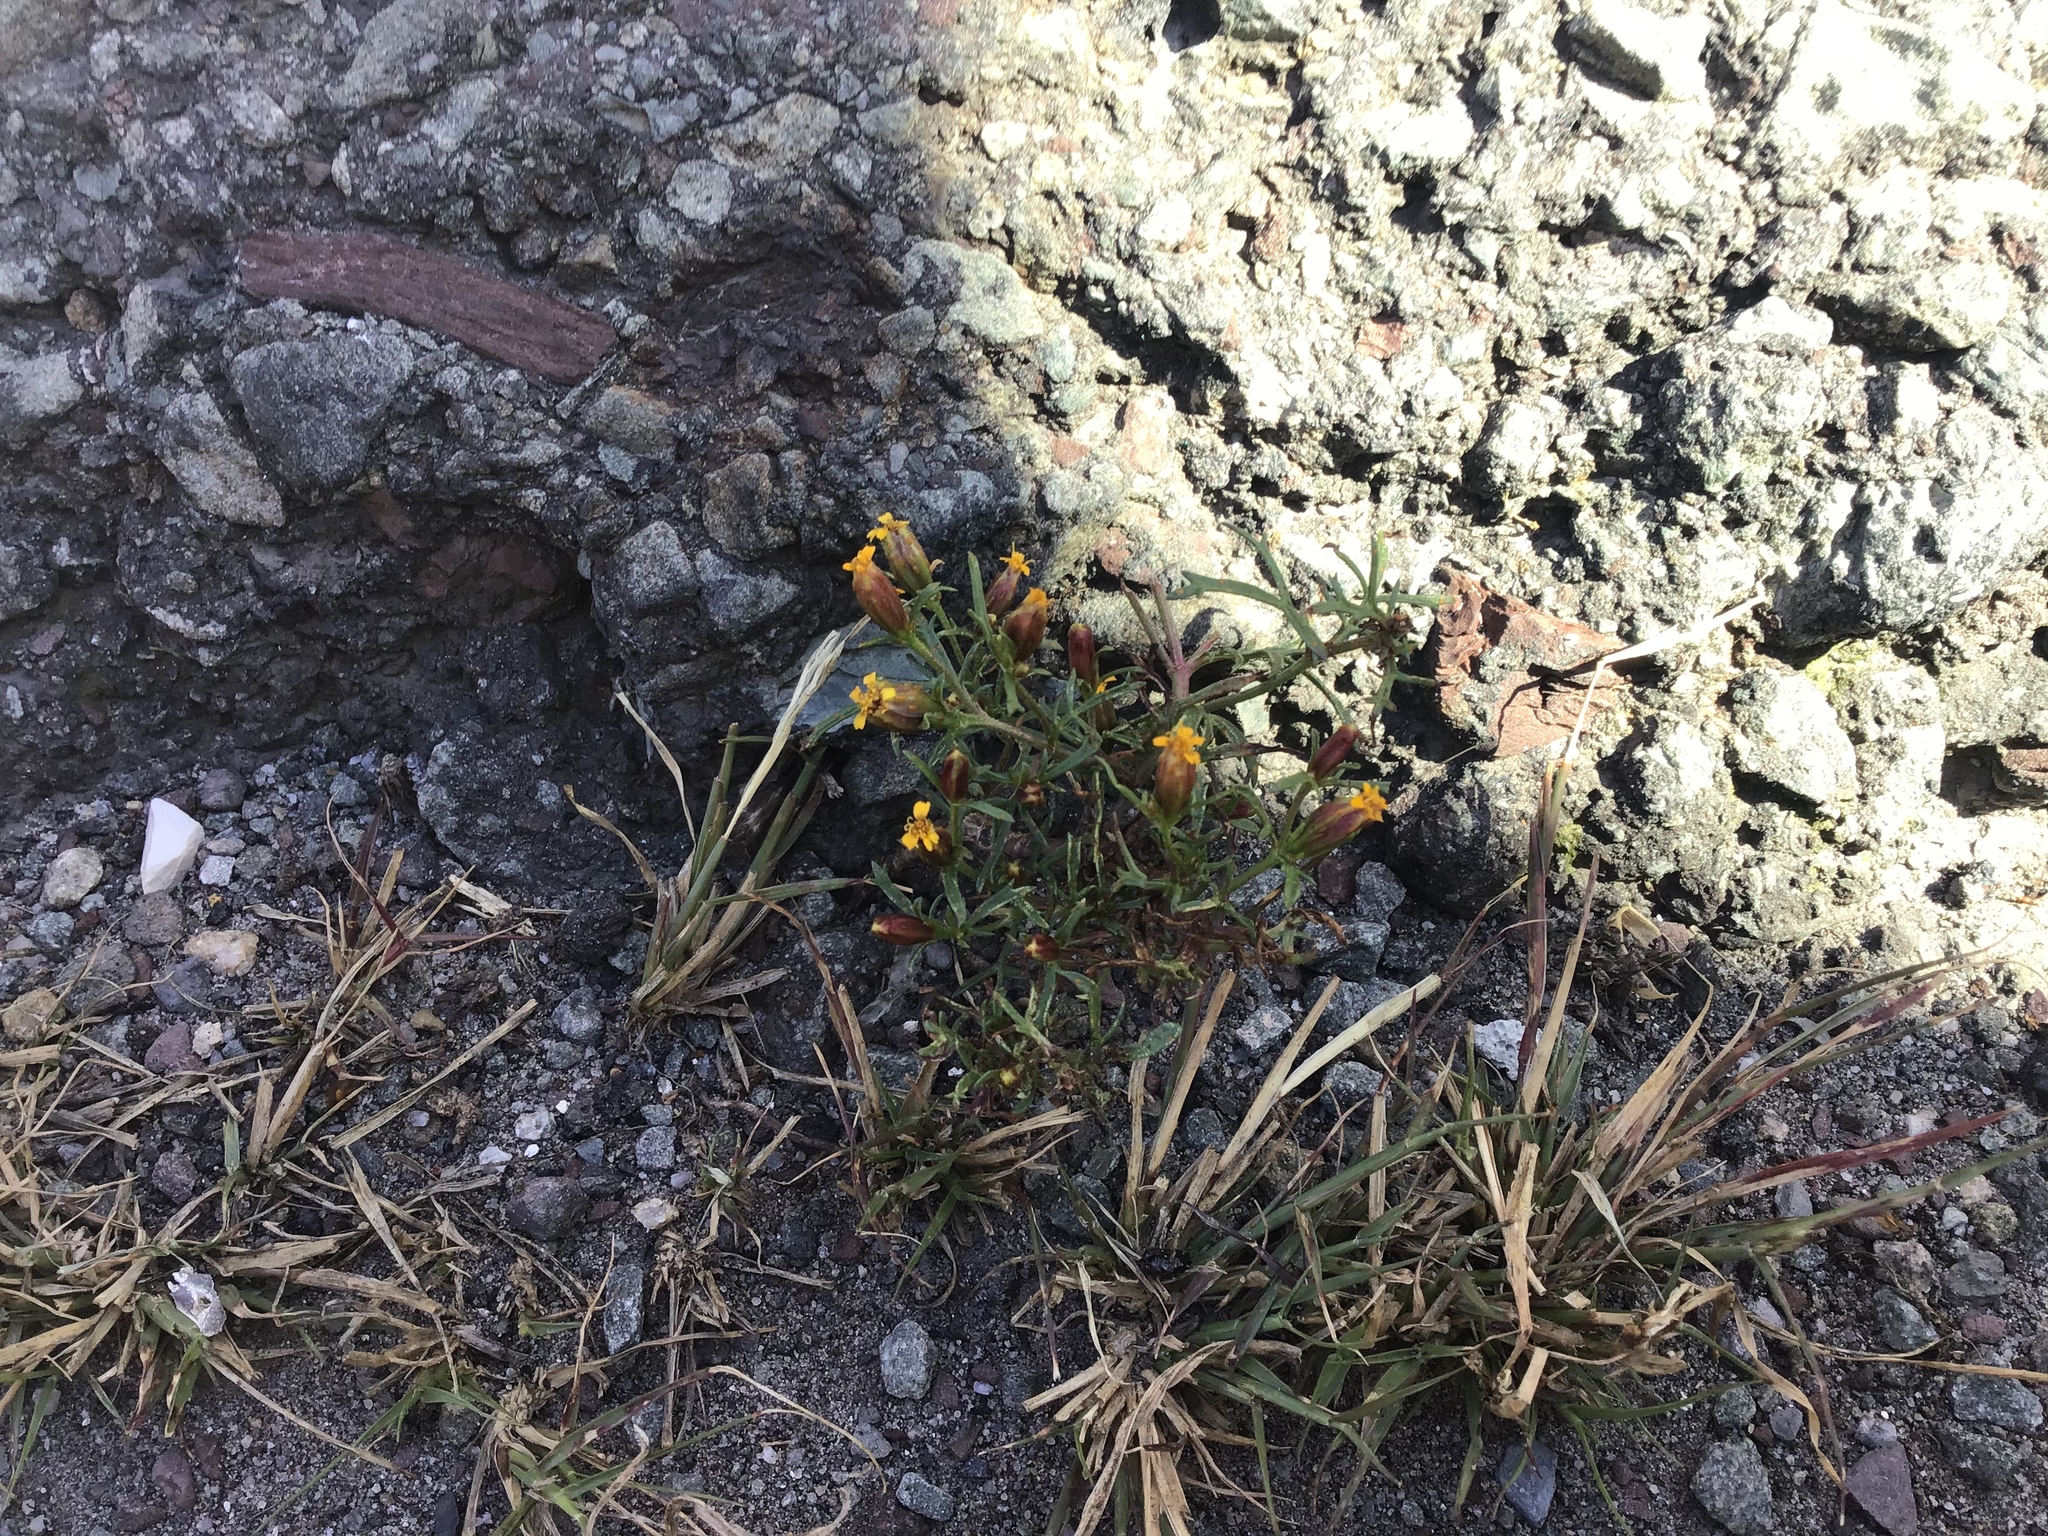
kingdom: Plantae
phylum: Tracheophyta
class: Magnoliopsida
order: Asterales
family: Asteraceae
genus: Dyssodia
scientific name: Dyssodia papposa
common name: Dogweed
